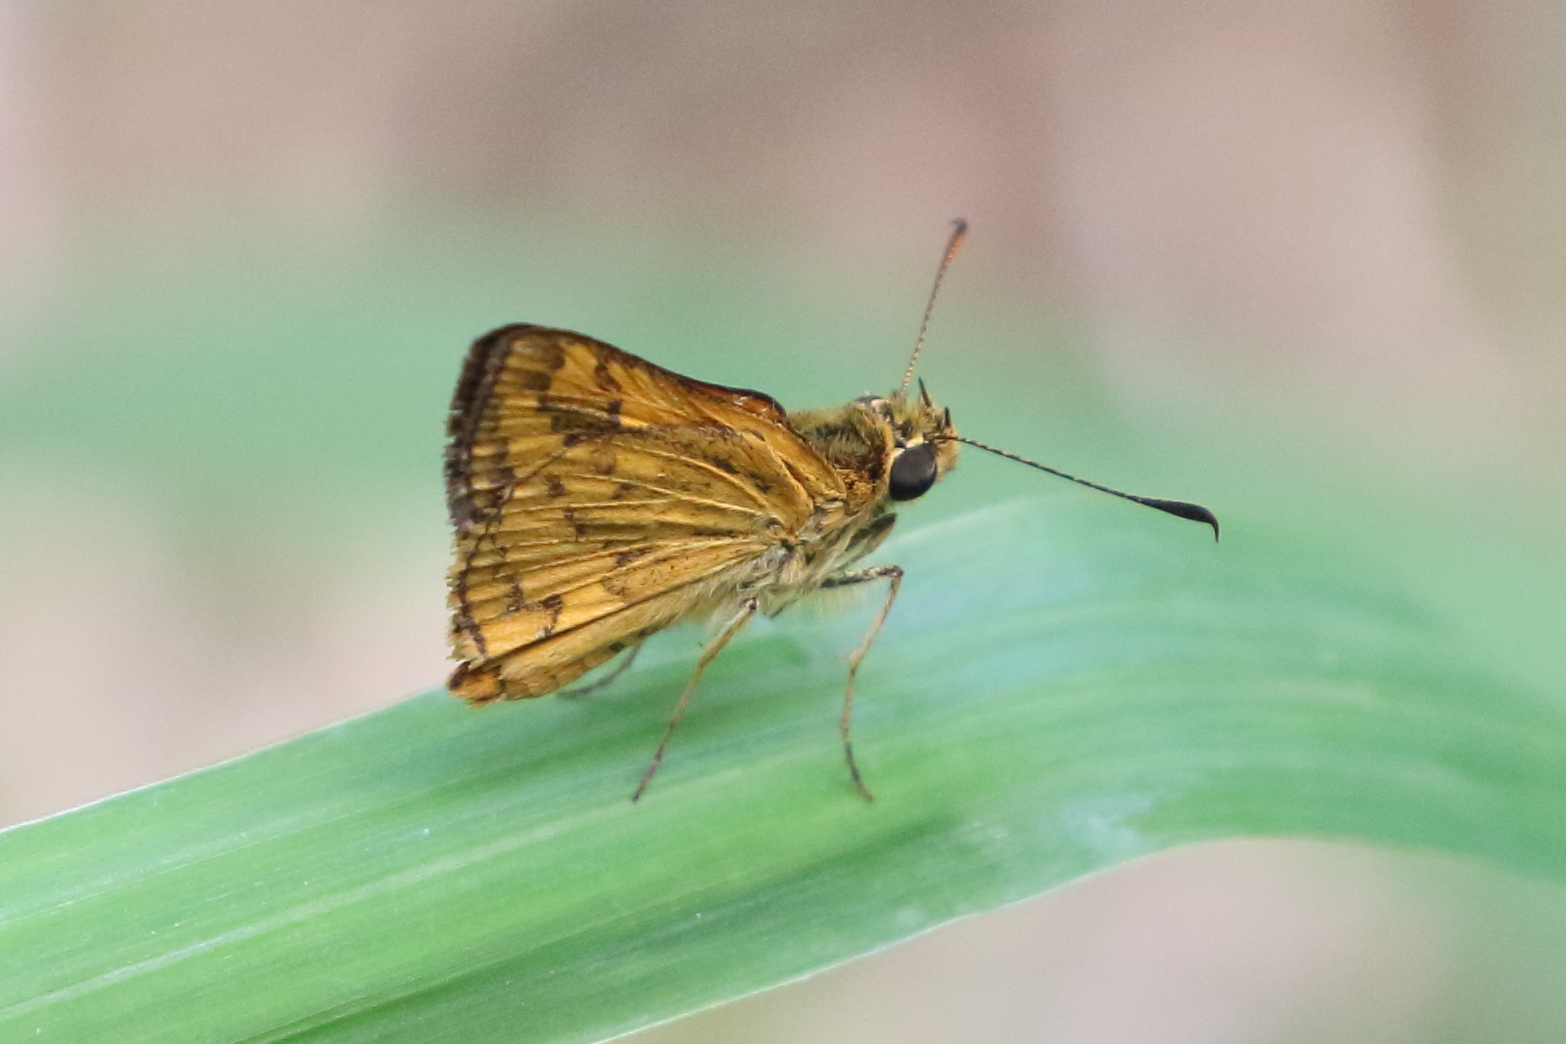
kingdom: Animalia
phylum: Arthropoda
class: Insecta
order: Lepidoptera
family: Hesperiidae
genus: Suniana
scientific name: Suniana sunias
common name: Wide-brand grass-dart
